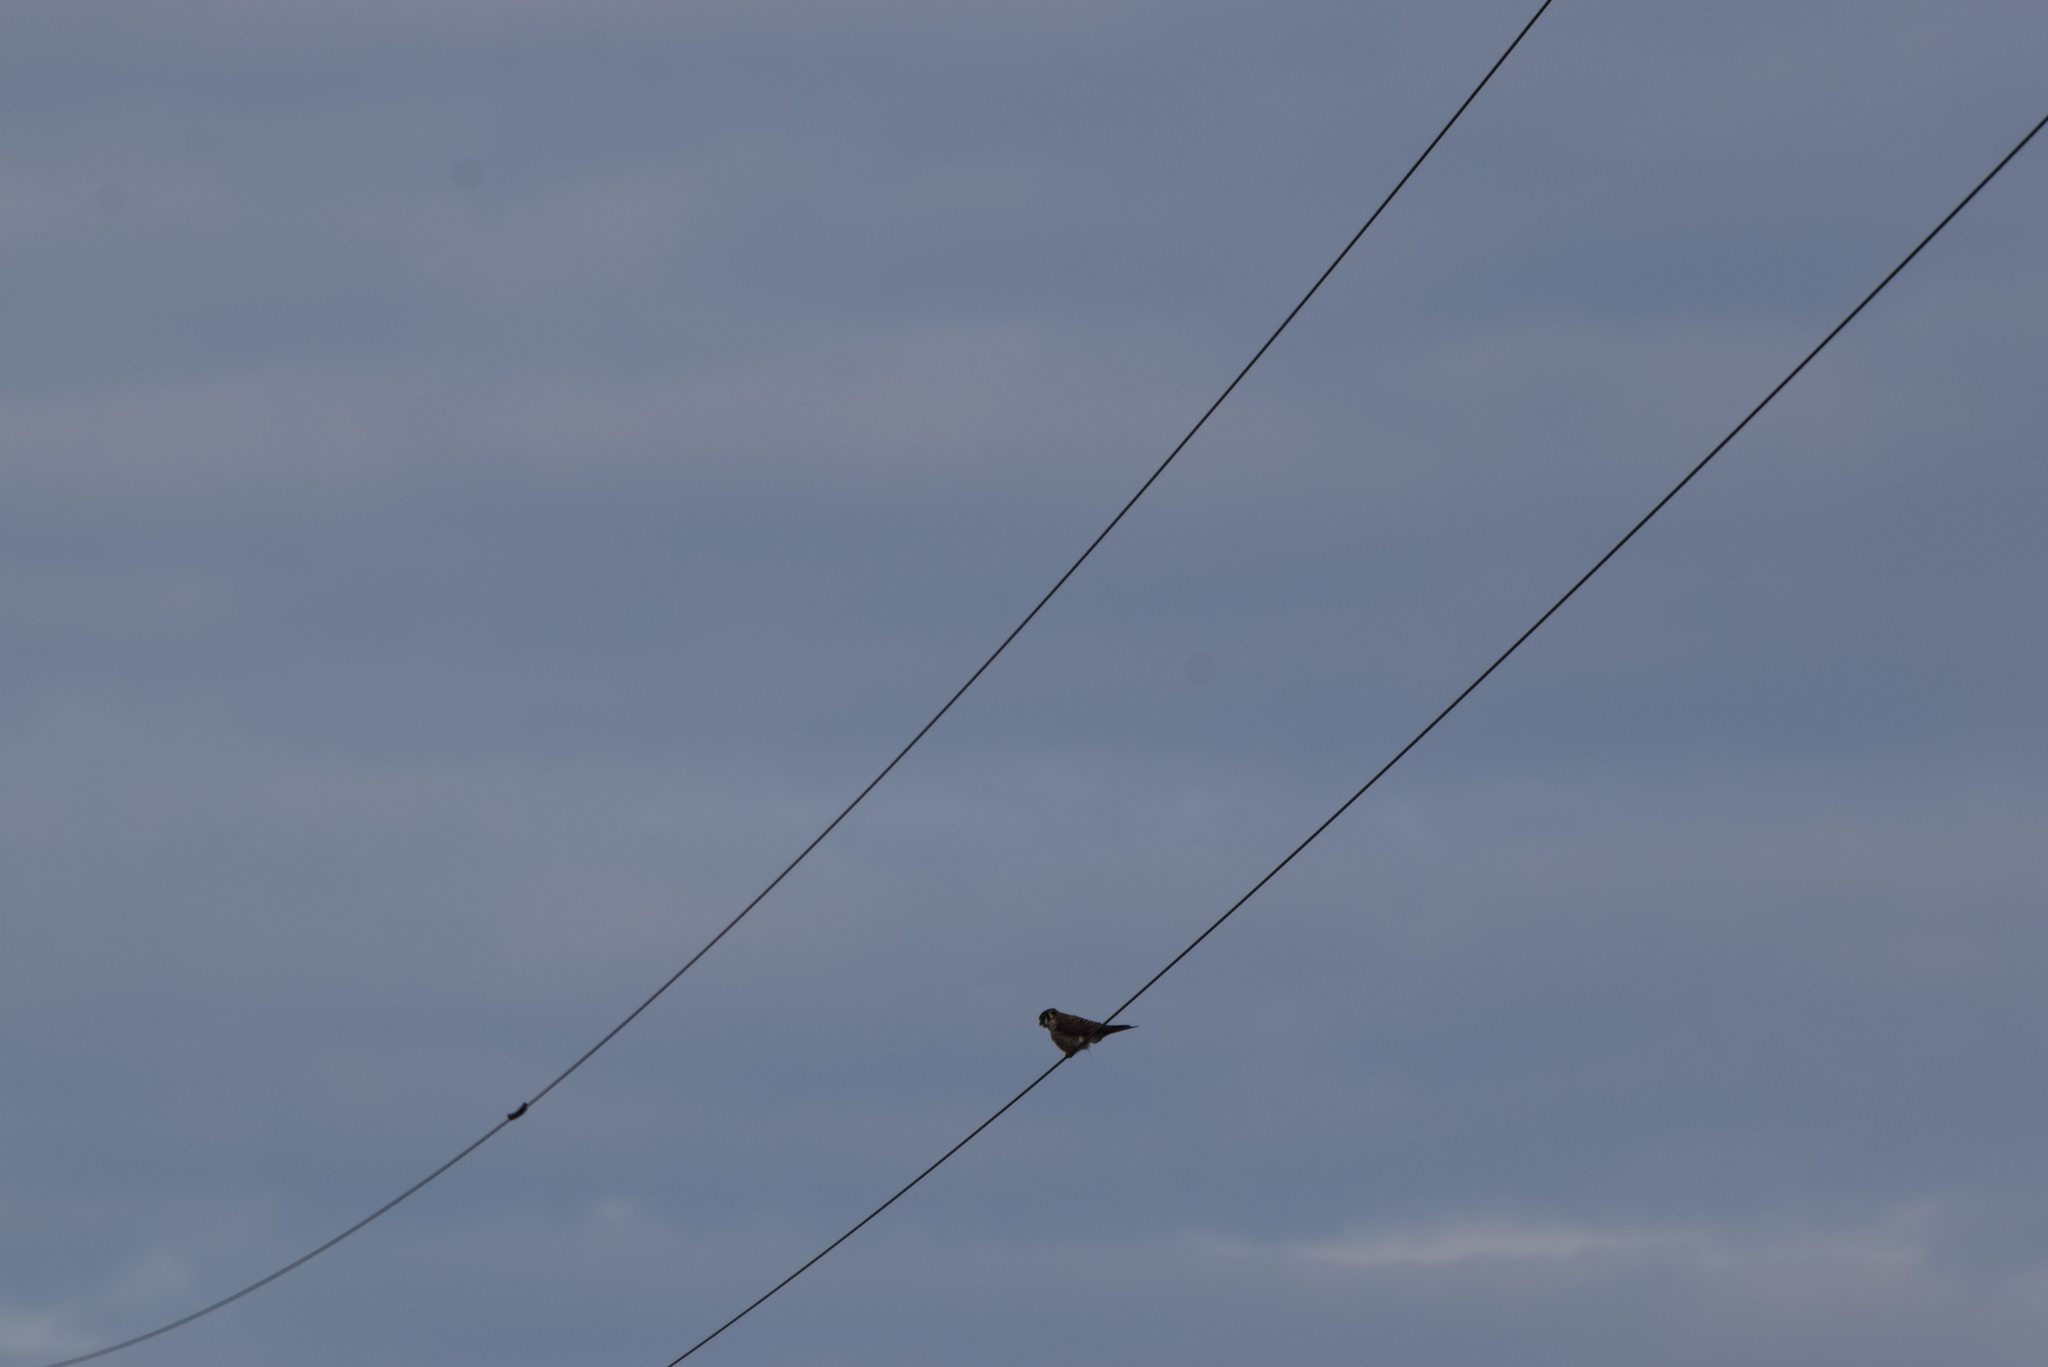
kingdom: Animalia
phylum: Chordata
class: Aves
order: Falconiformes
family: Falconidae
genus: Falco
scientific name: Falco sparverius
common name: American kestrel
